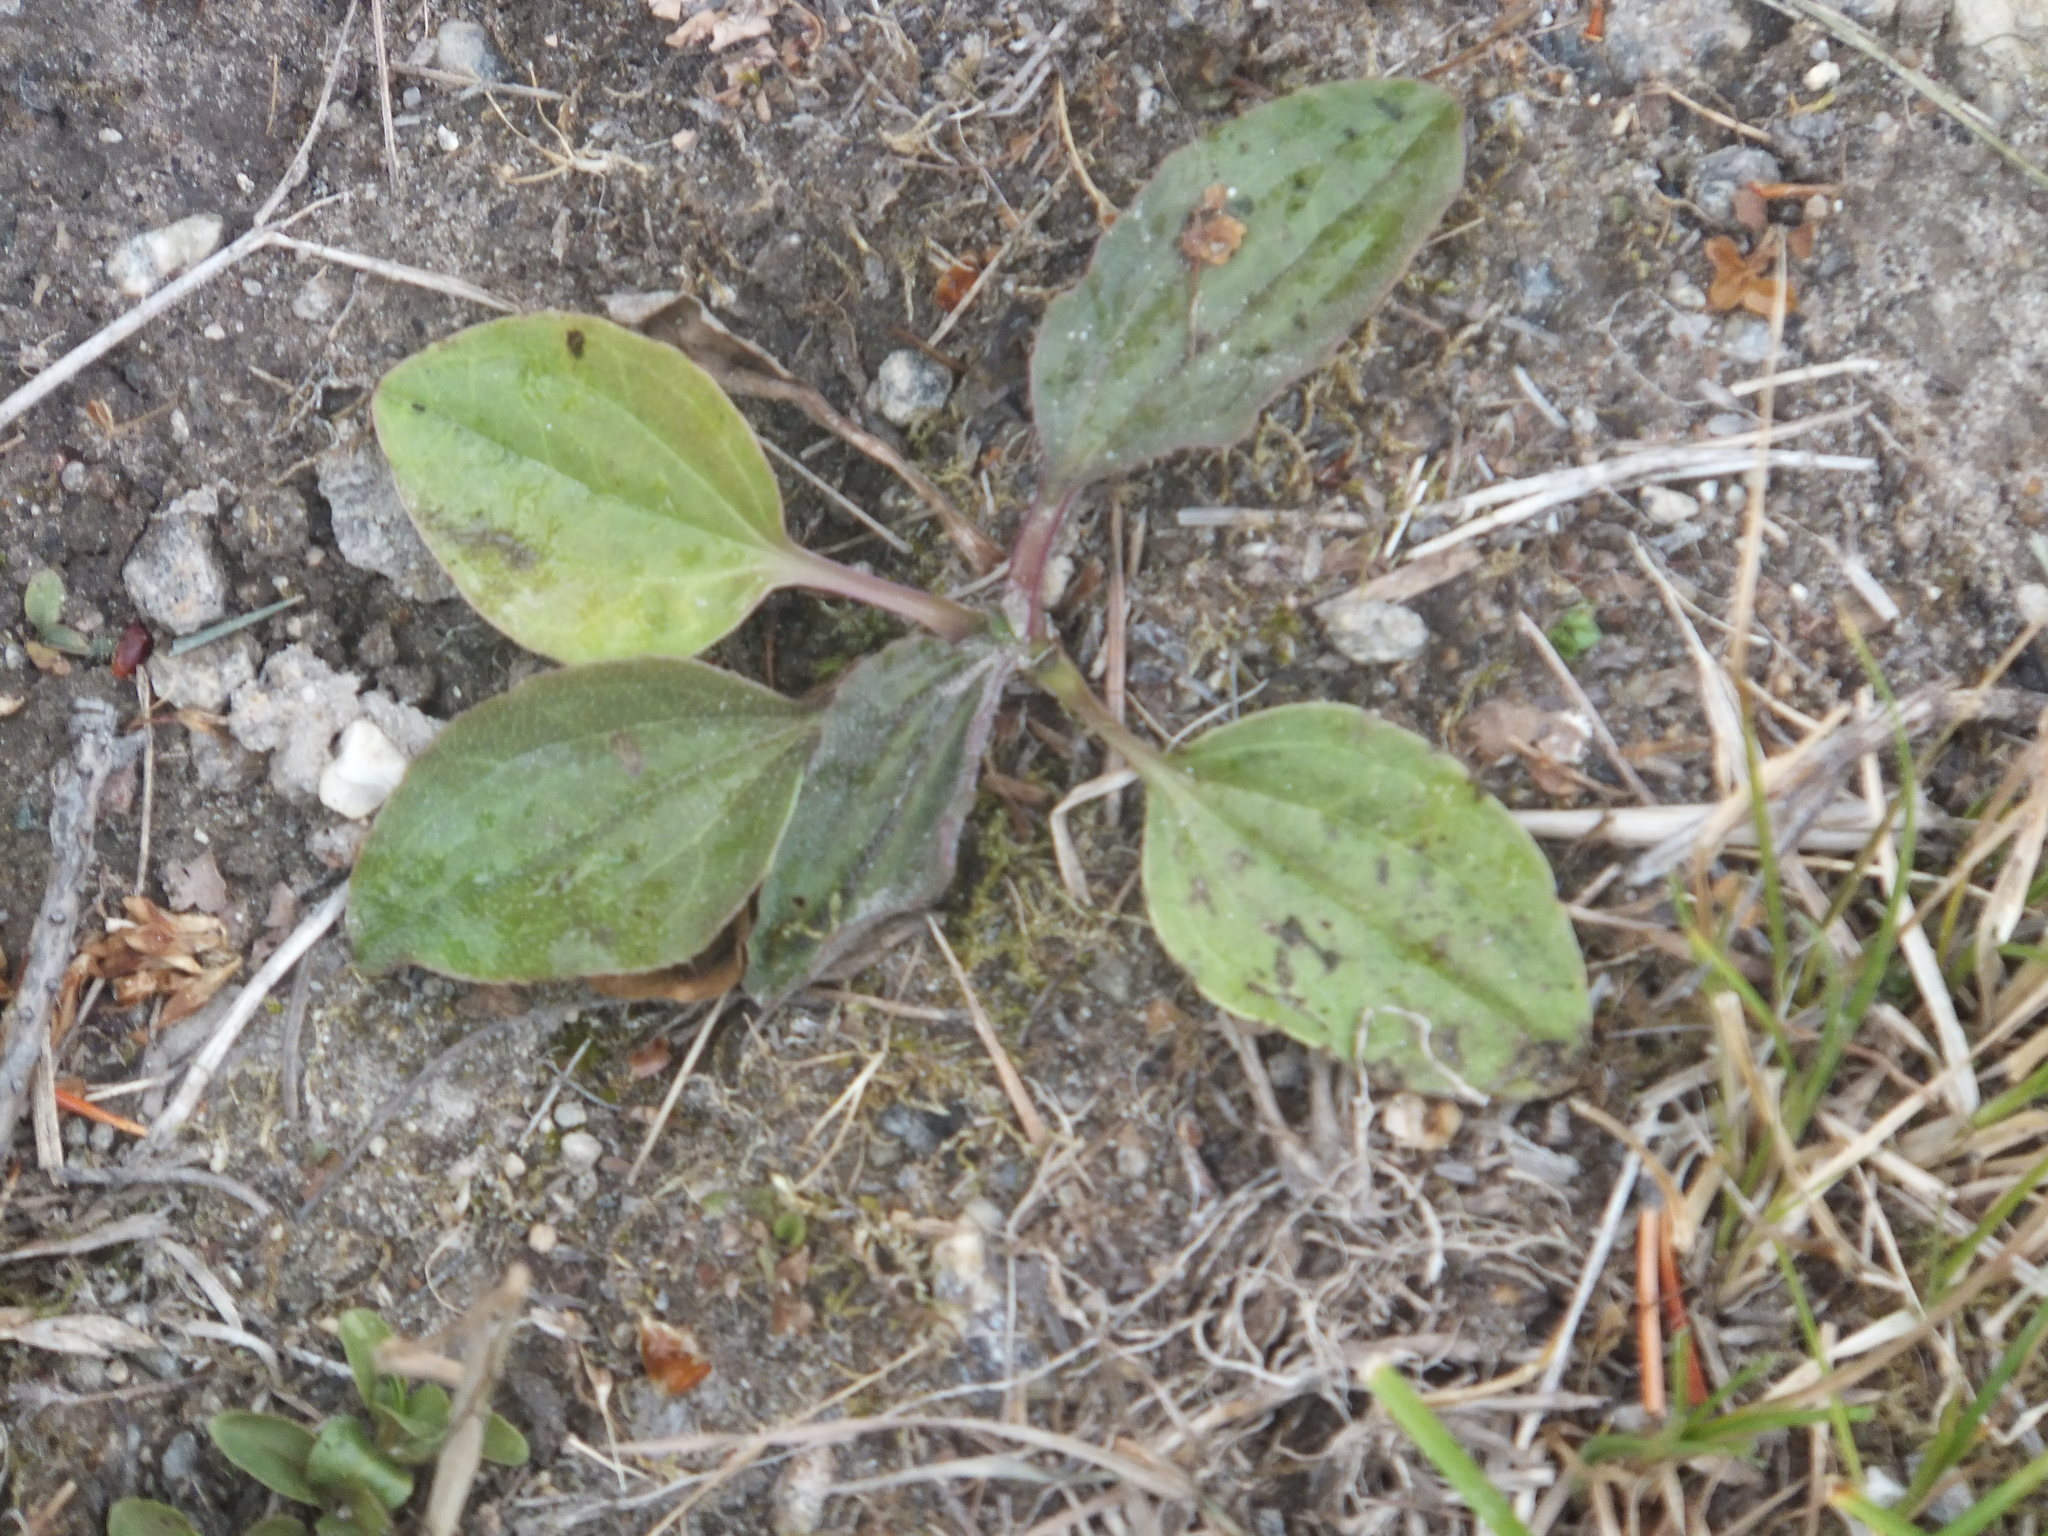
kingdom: Plantae
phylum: Tracheophyta
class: Magnoliopsida
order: Lamiales
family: Plantaginaceae
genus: Plantago
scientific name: Plantago major
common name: Common plantain
